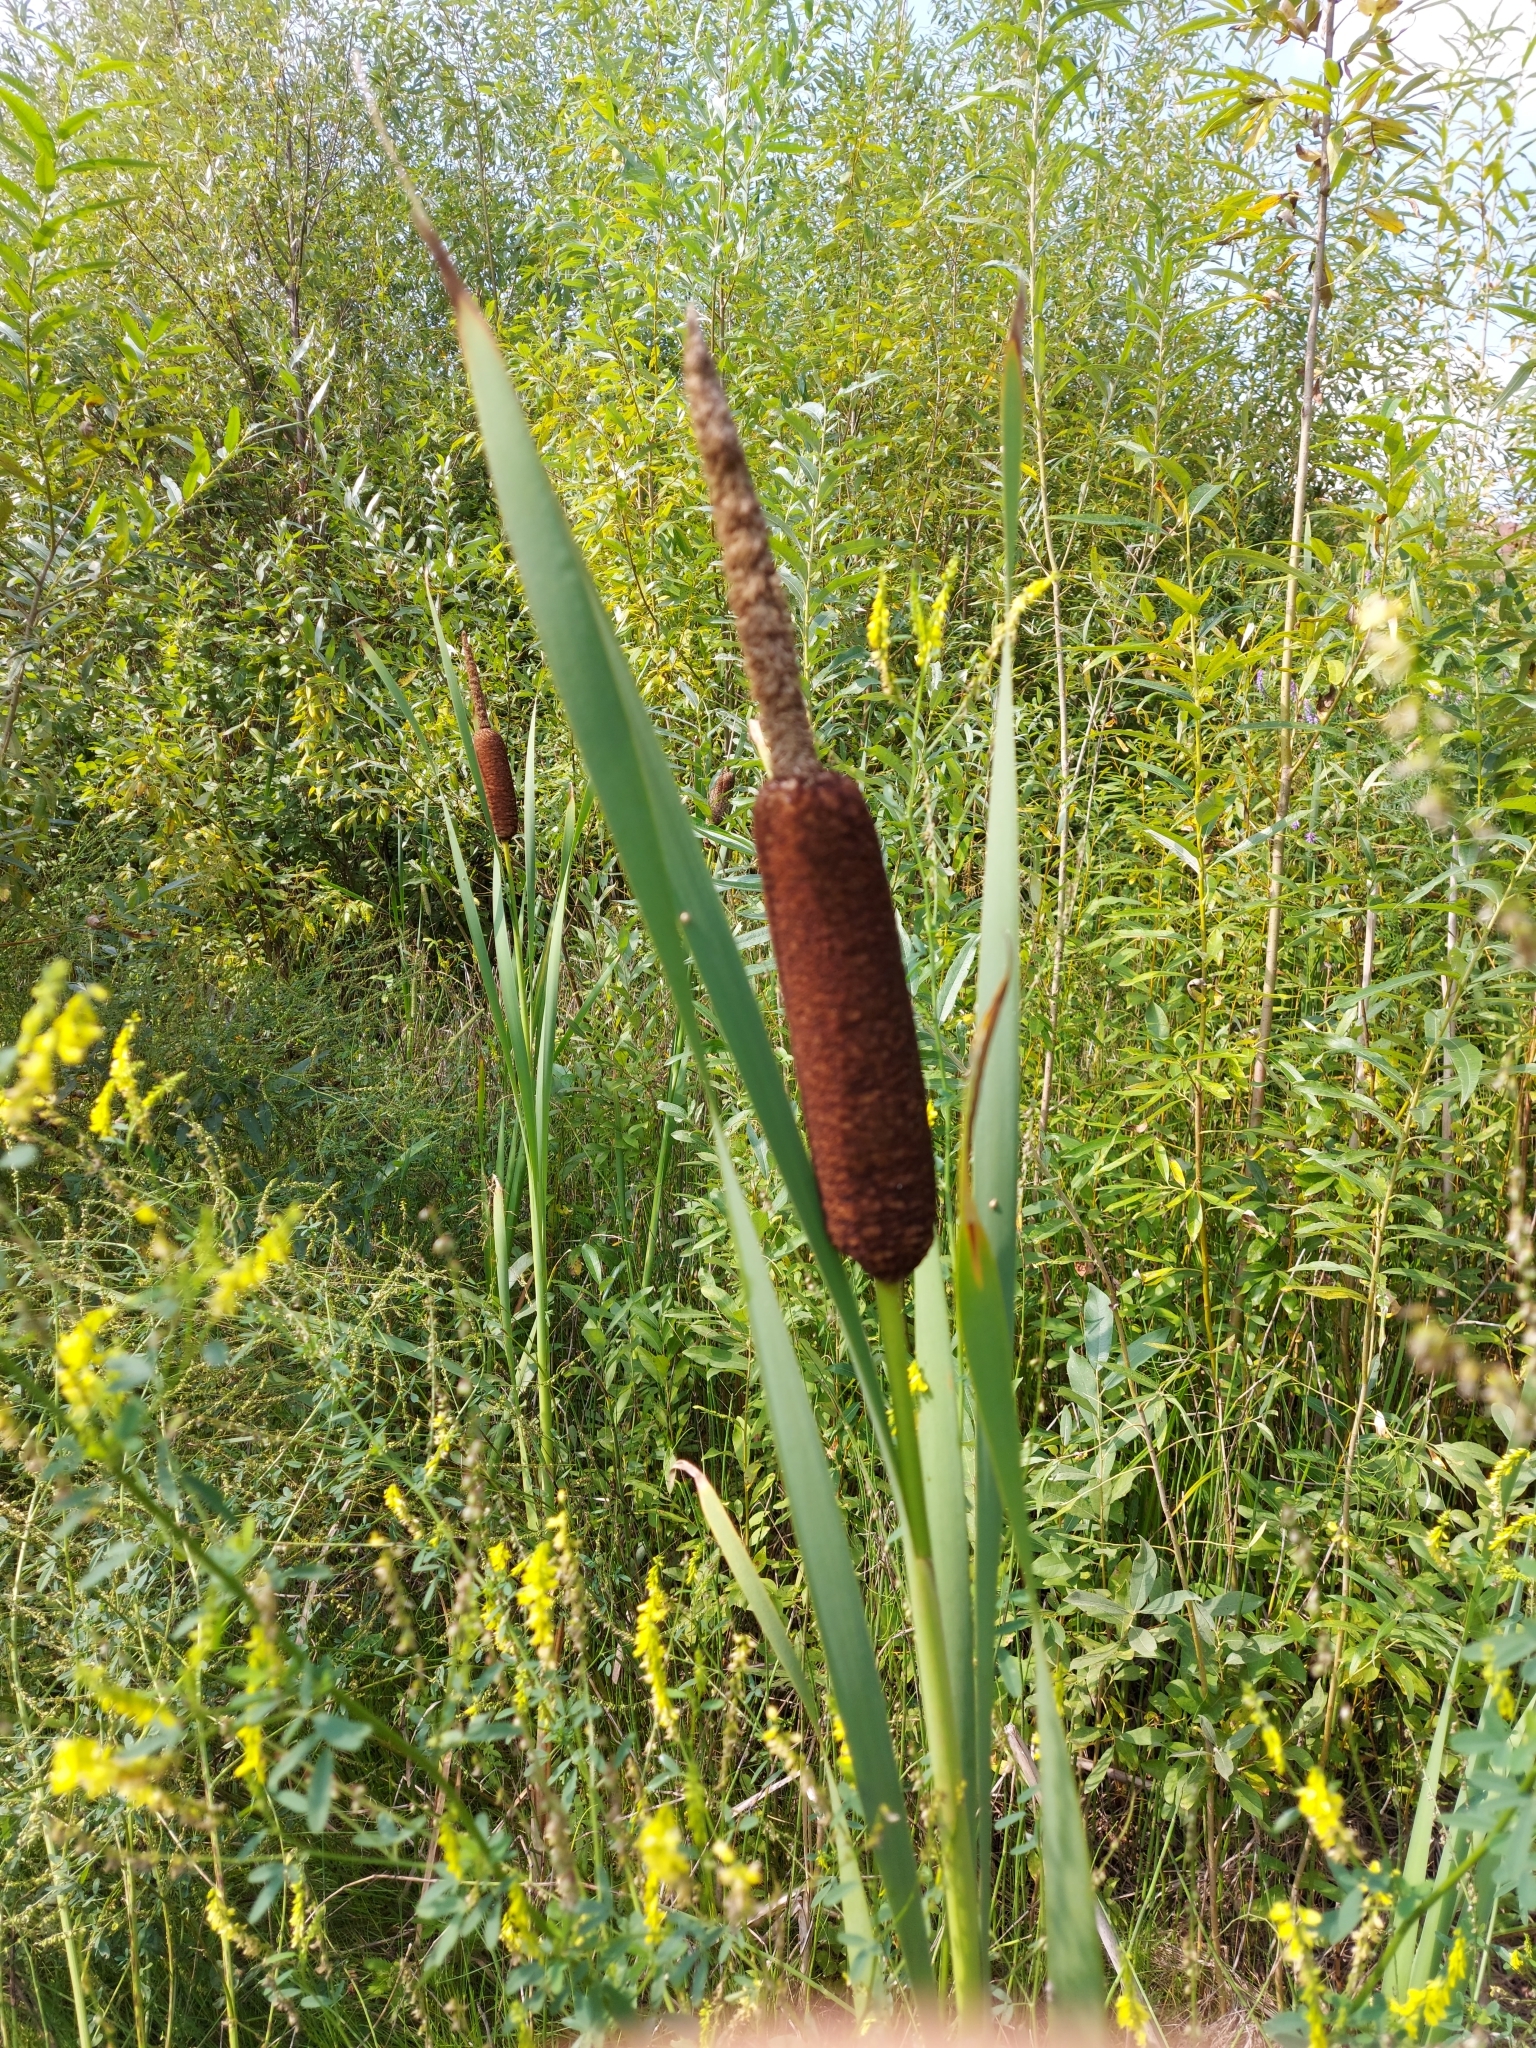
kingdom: Plantae
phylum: Tracheophyta
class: Liliopsida
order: Poales
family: Typhaceae
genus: Typha
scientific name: Typha latifolia
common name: Broadleaf cattail
